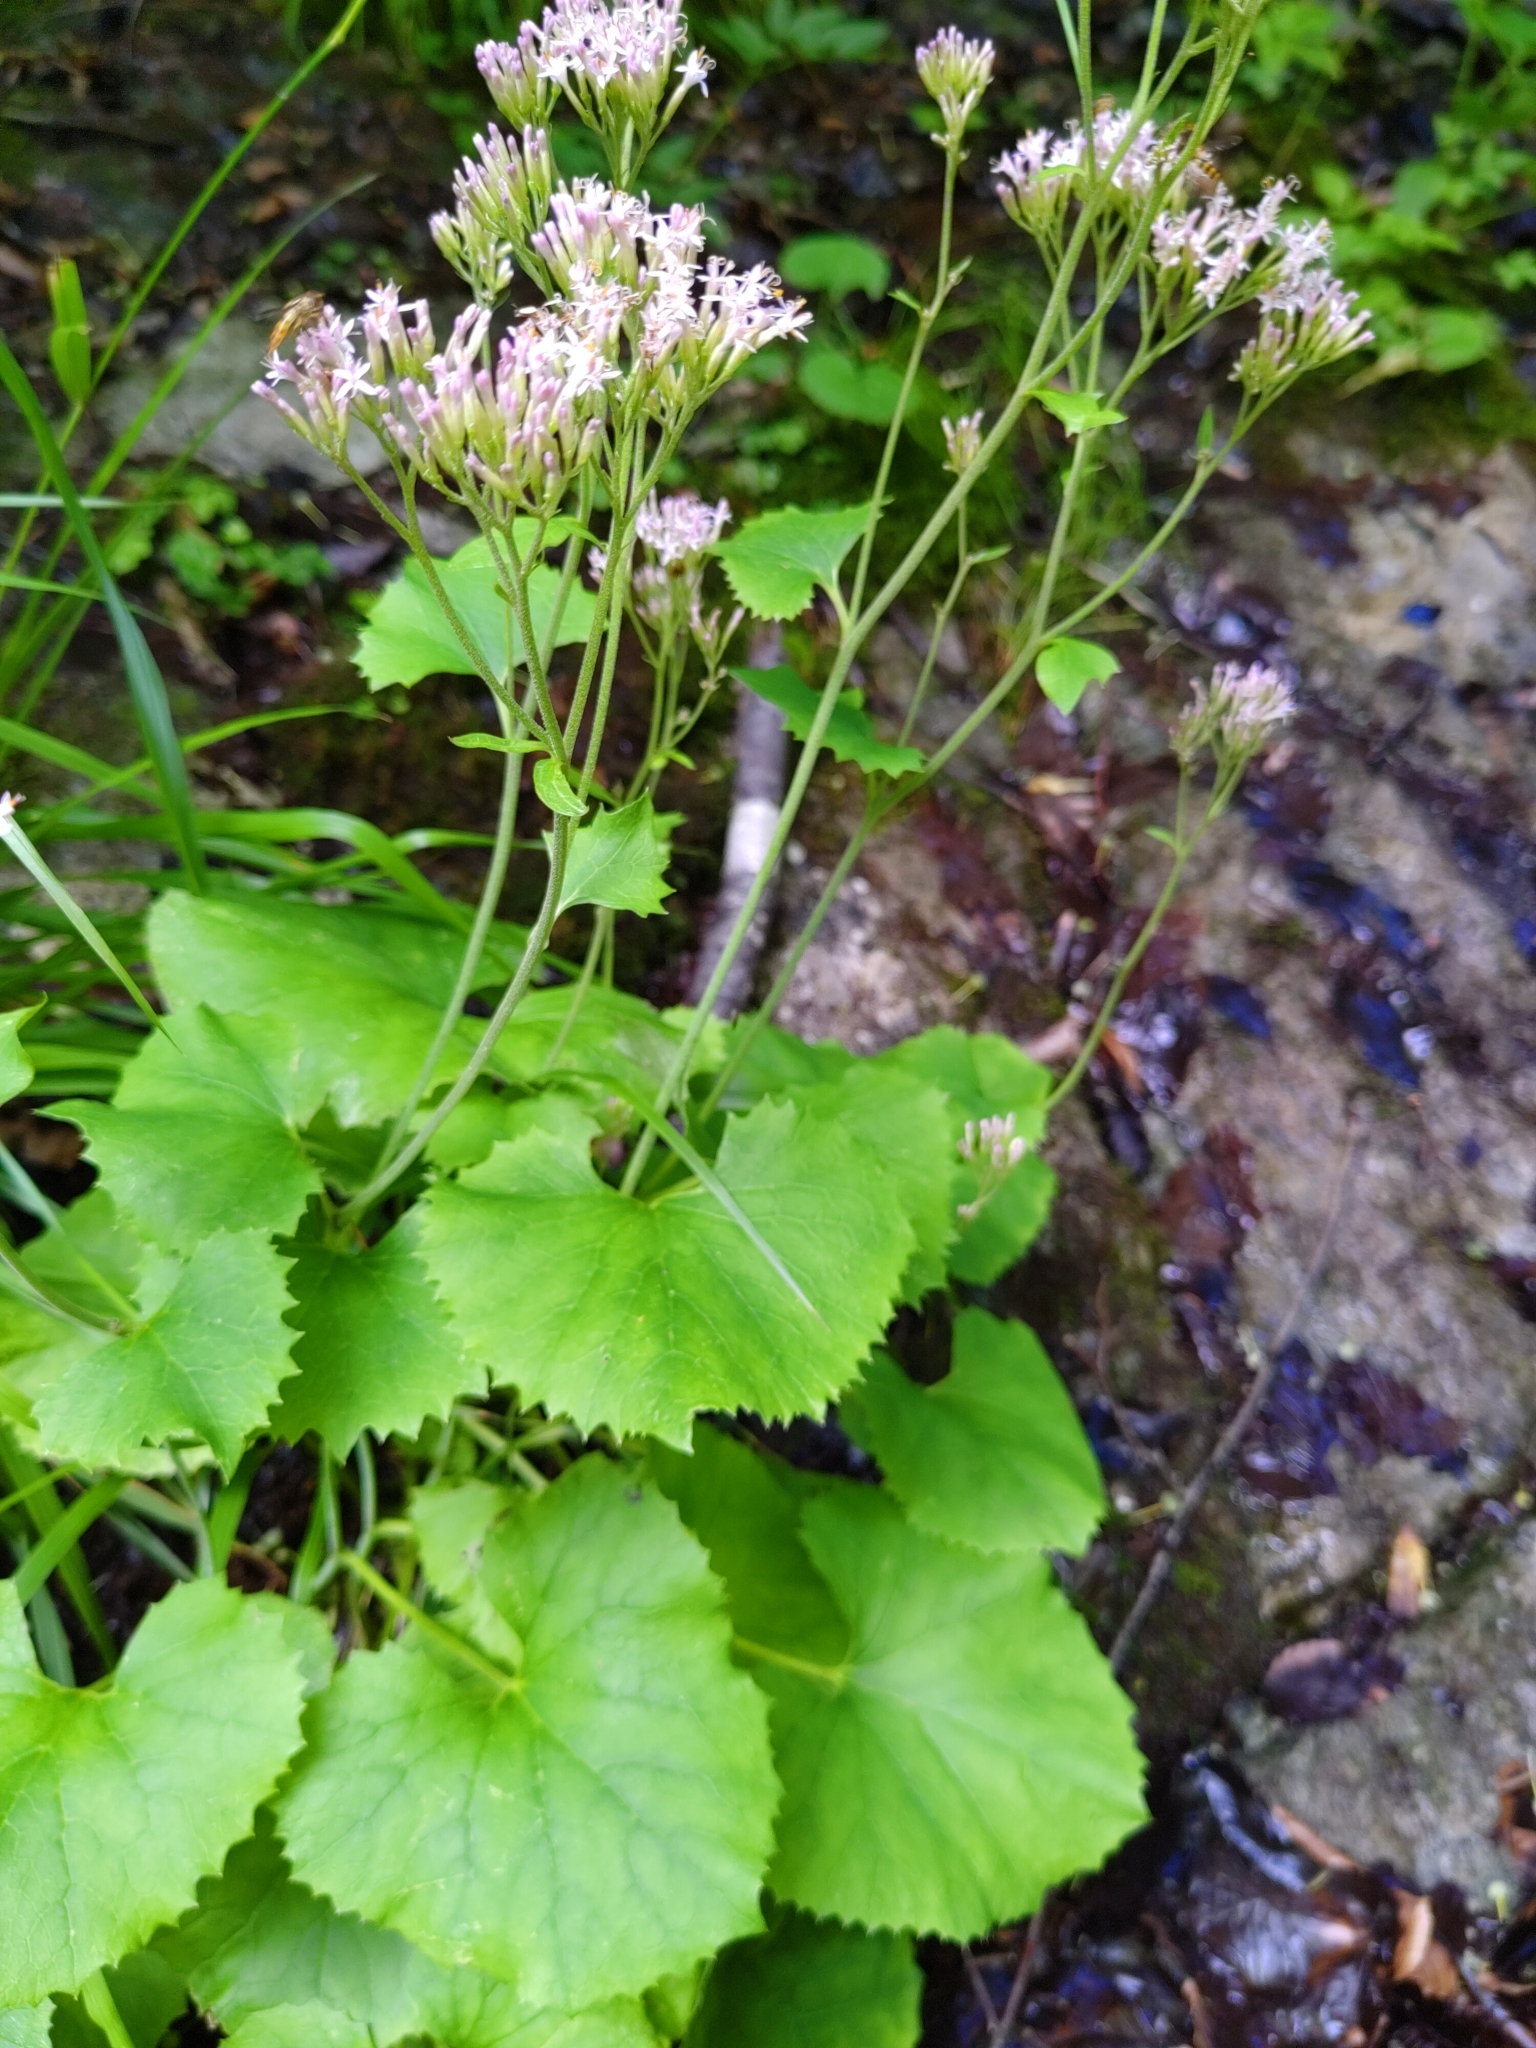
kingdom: Plantae
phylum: Tracheophyta
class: Magnoliopsida
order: Asterales
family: Asteraceae
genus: Adenostyles
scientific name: Adenostyles alpina
